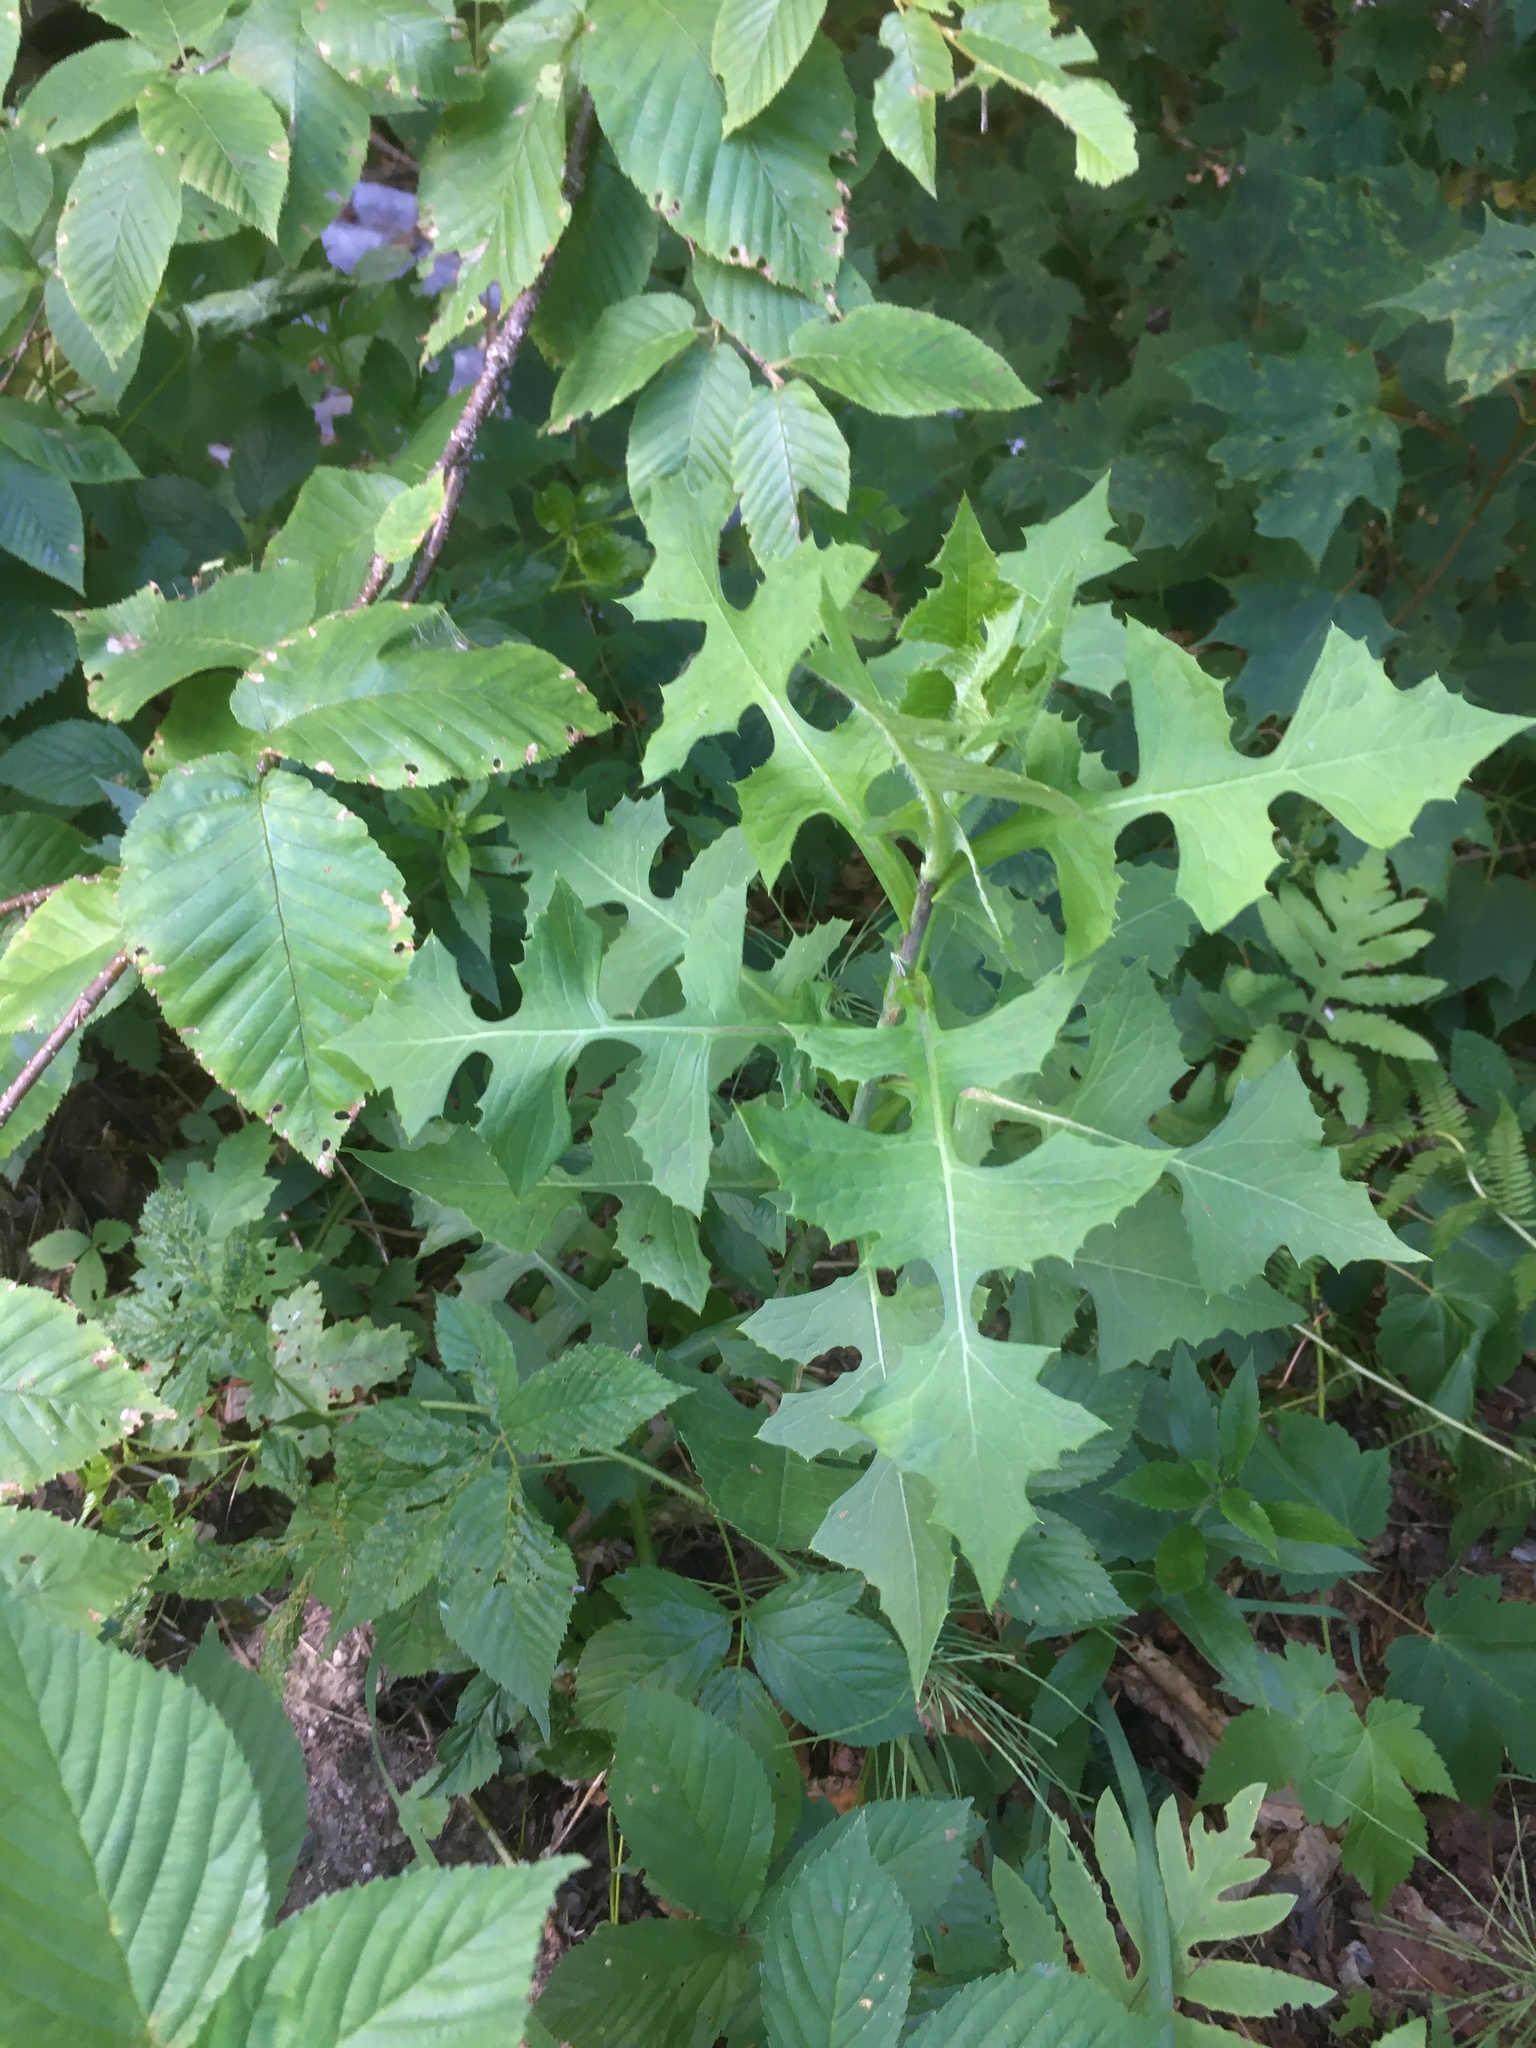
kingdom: Plantae
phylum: Tracheophyta
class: Magnoliopsida
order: Asterales
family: Asteraceae
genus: Lactuca
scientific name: Lactuca biennis
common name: Blue wood lettuce
